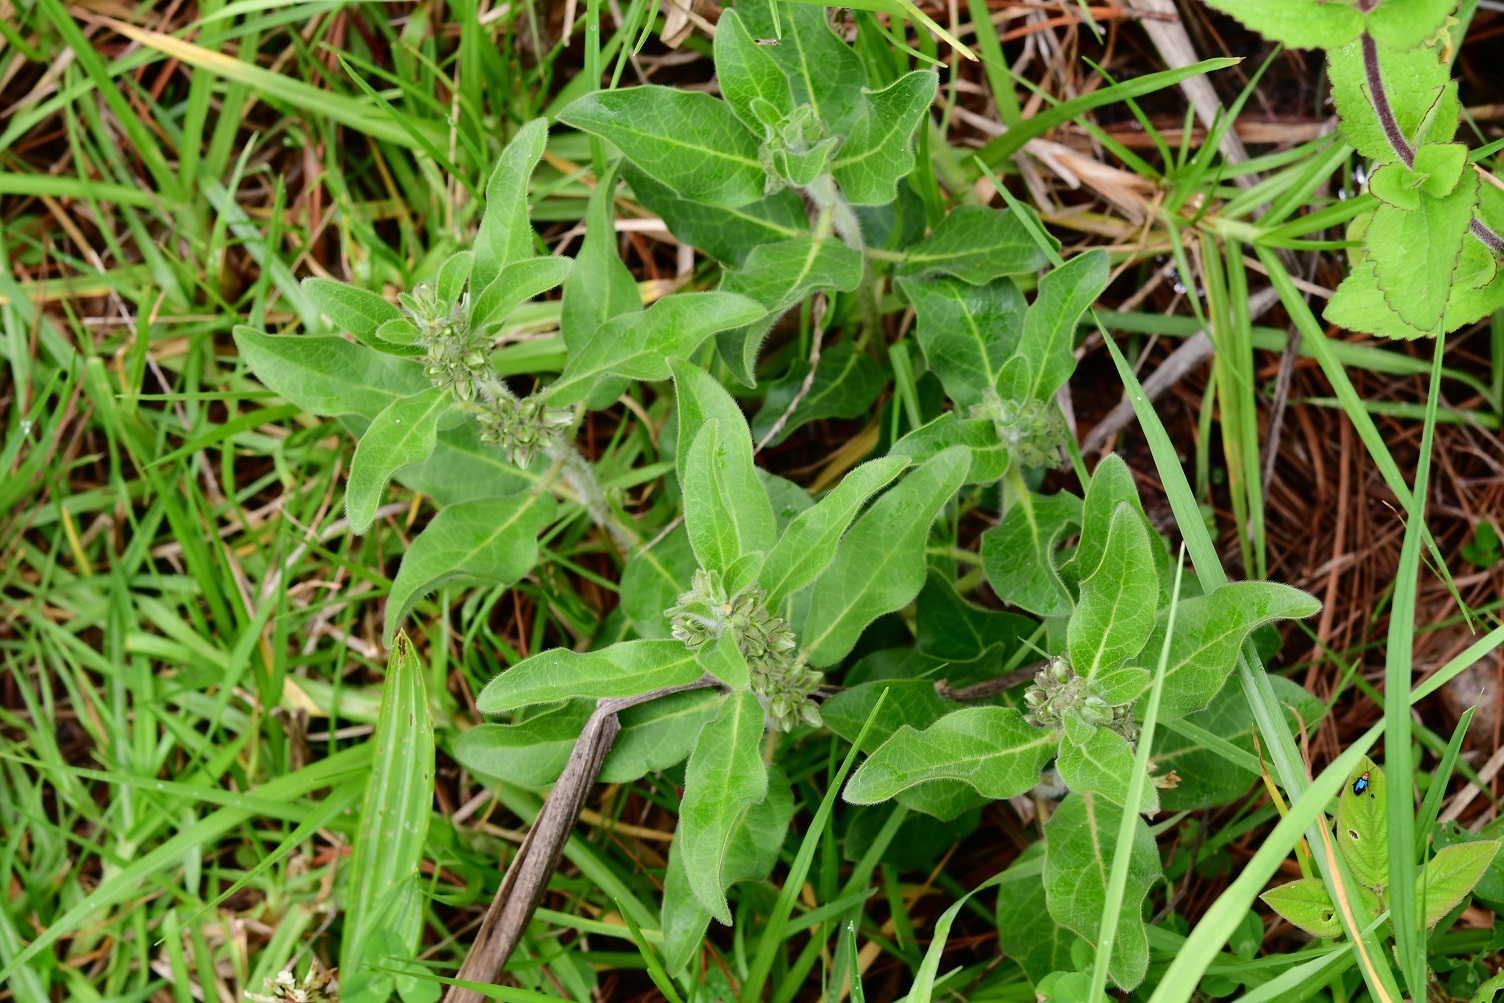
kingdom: Plantae
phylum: Tracheophyta
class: Magnoliopsida
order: Gentianales
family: Apocynaceae
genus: Pherotrichis
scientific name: Pherotrichis villosa
